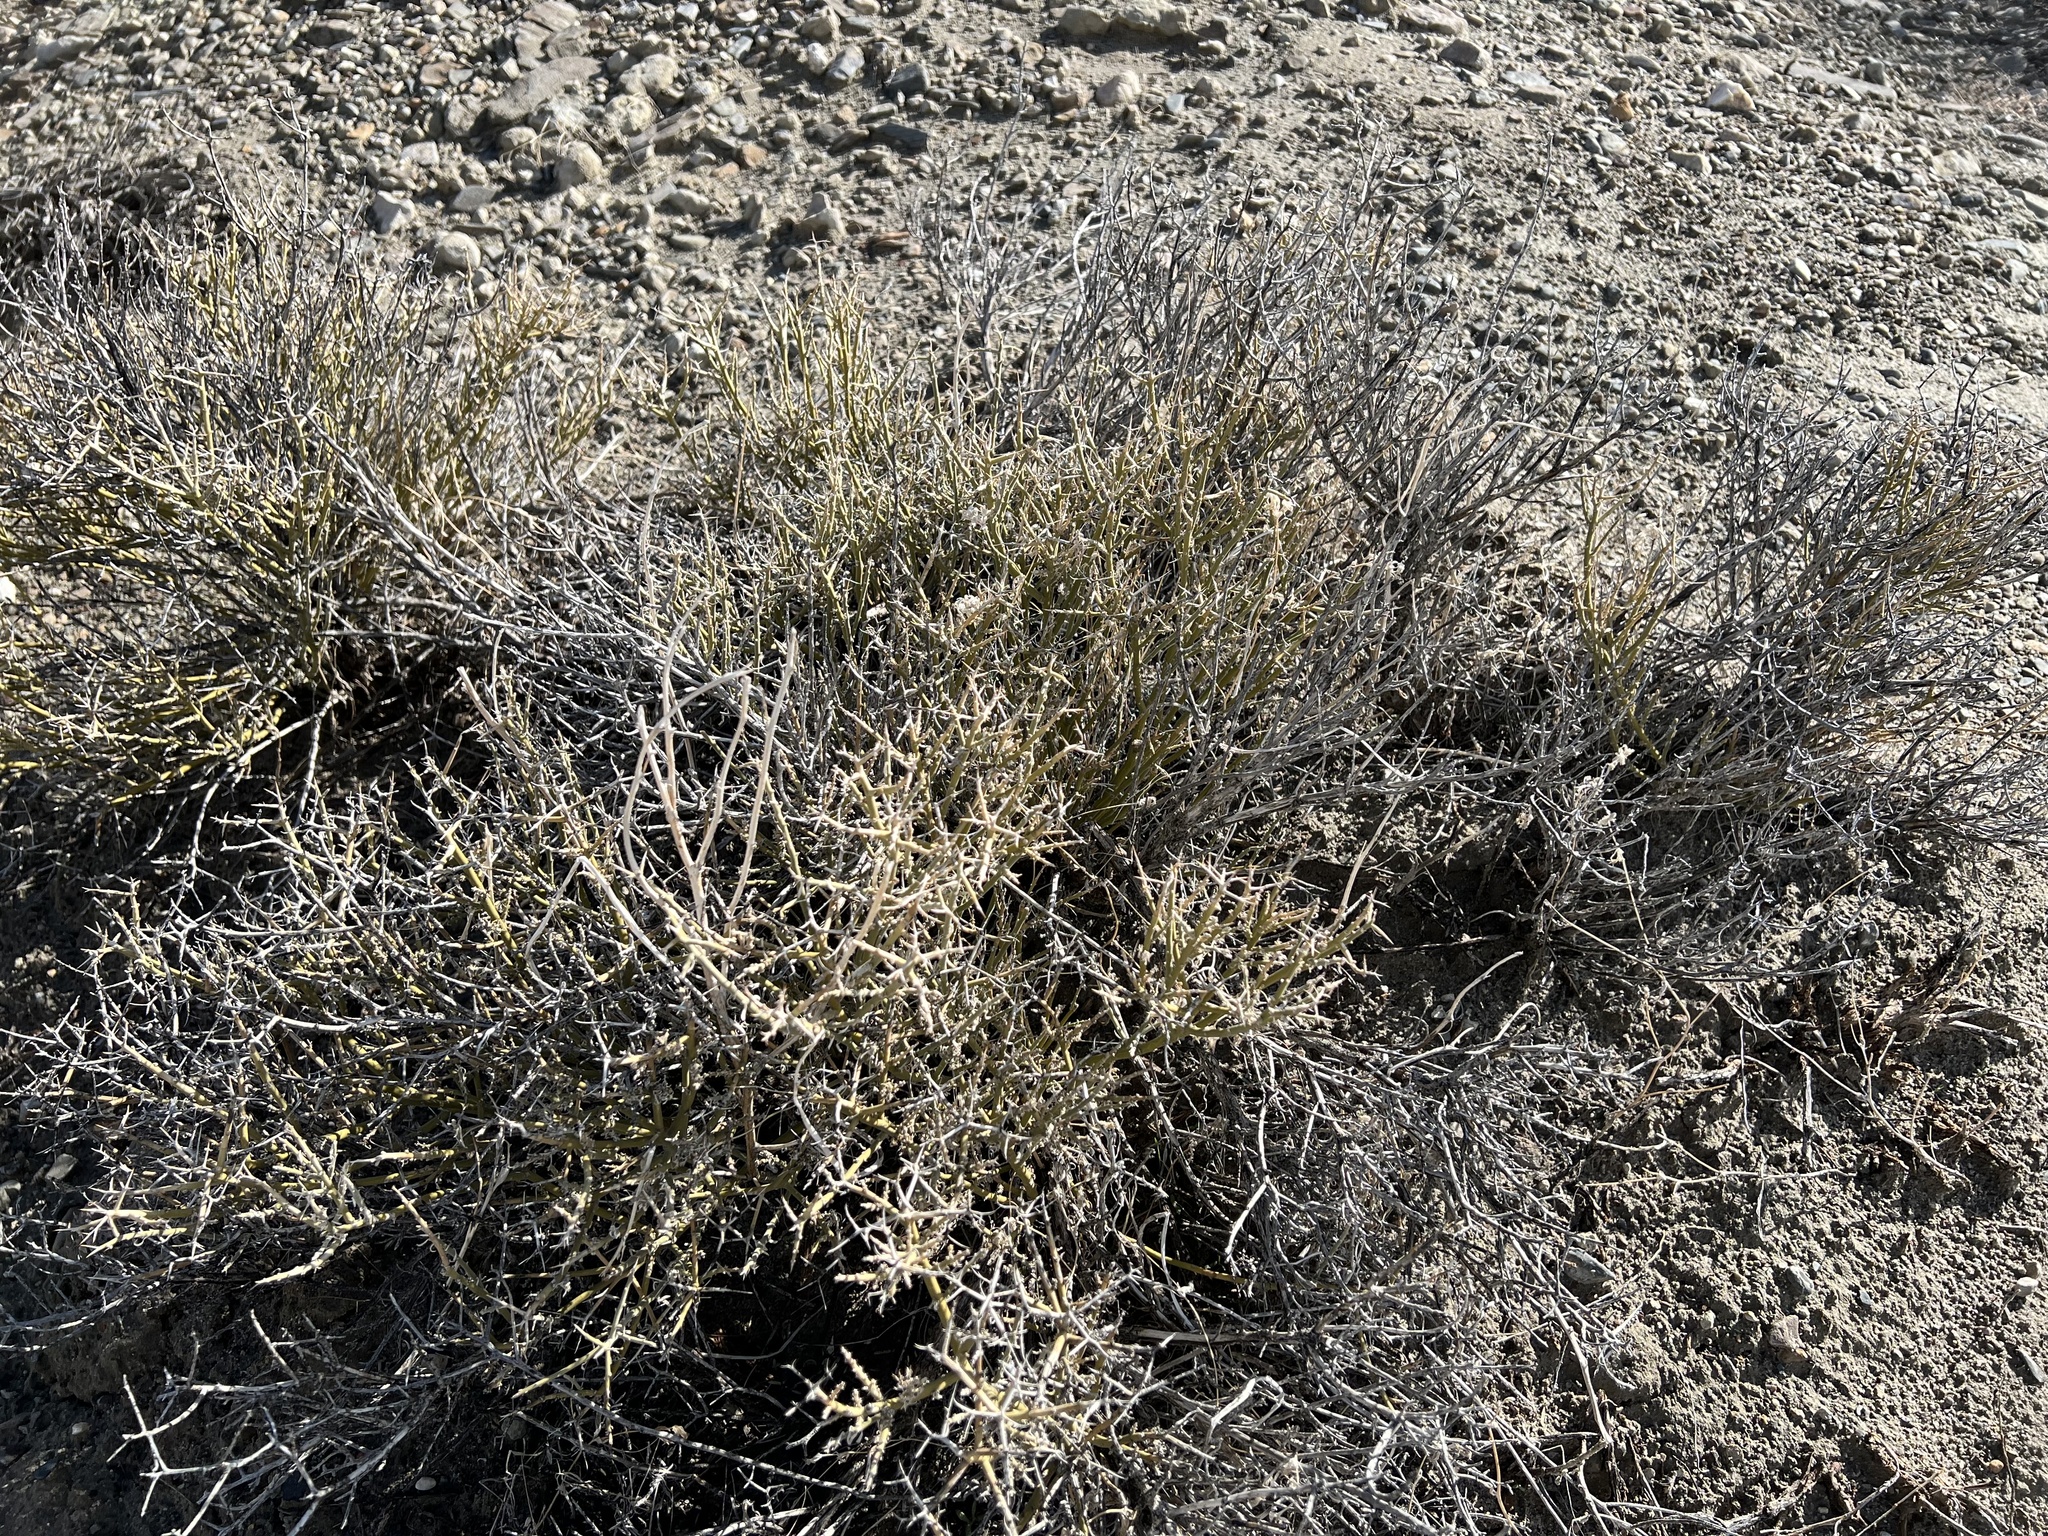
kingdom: Plantae
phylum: Tracheophyta
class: Magnoliopsida
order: Lamiales
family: Oleaceae
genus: Menodora
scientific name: Menodora spinescens
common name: Spiny menodora
